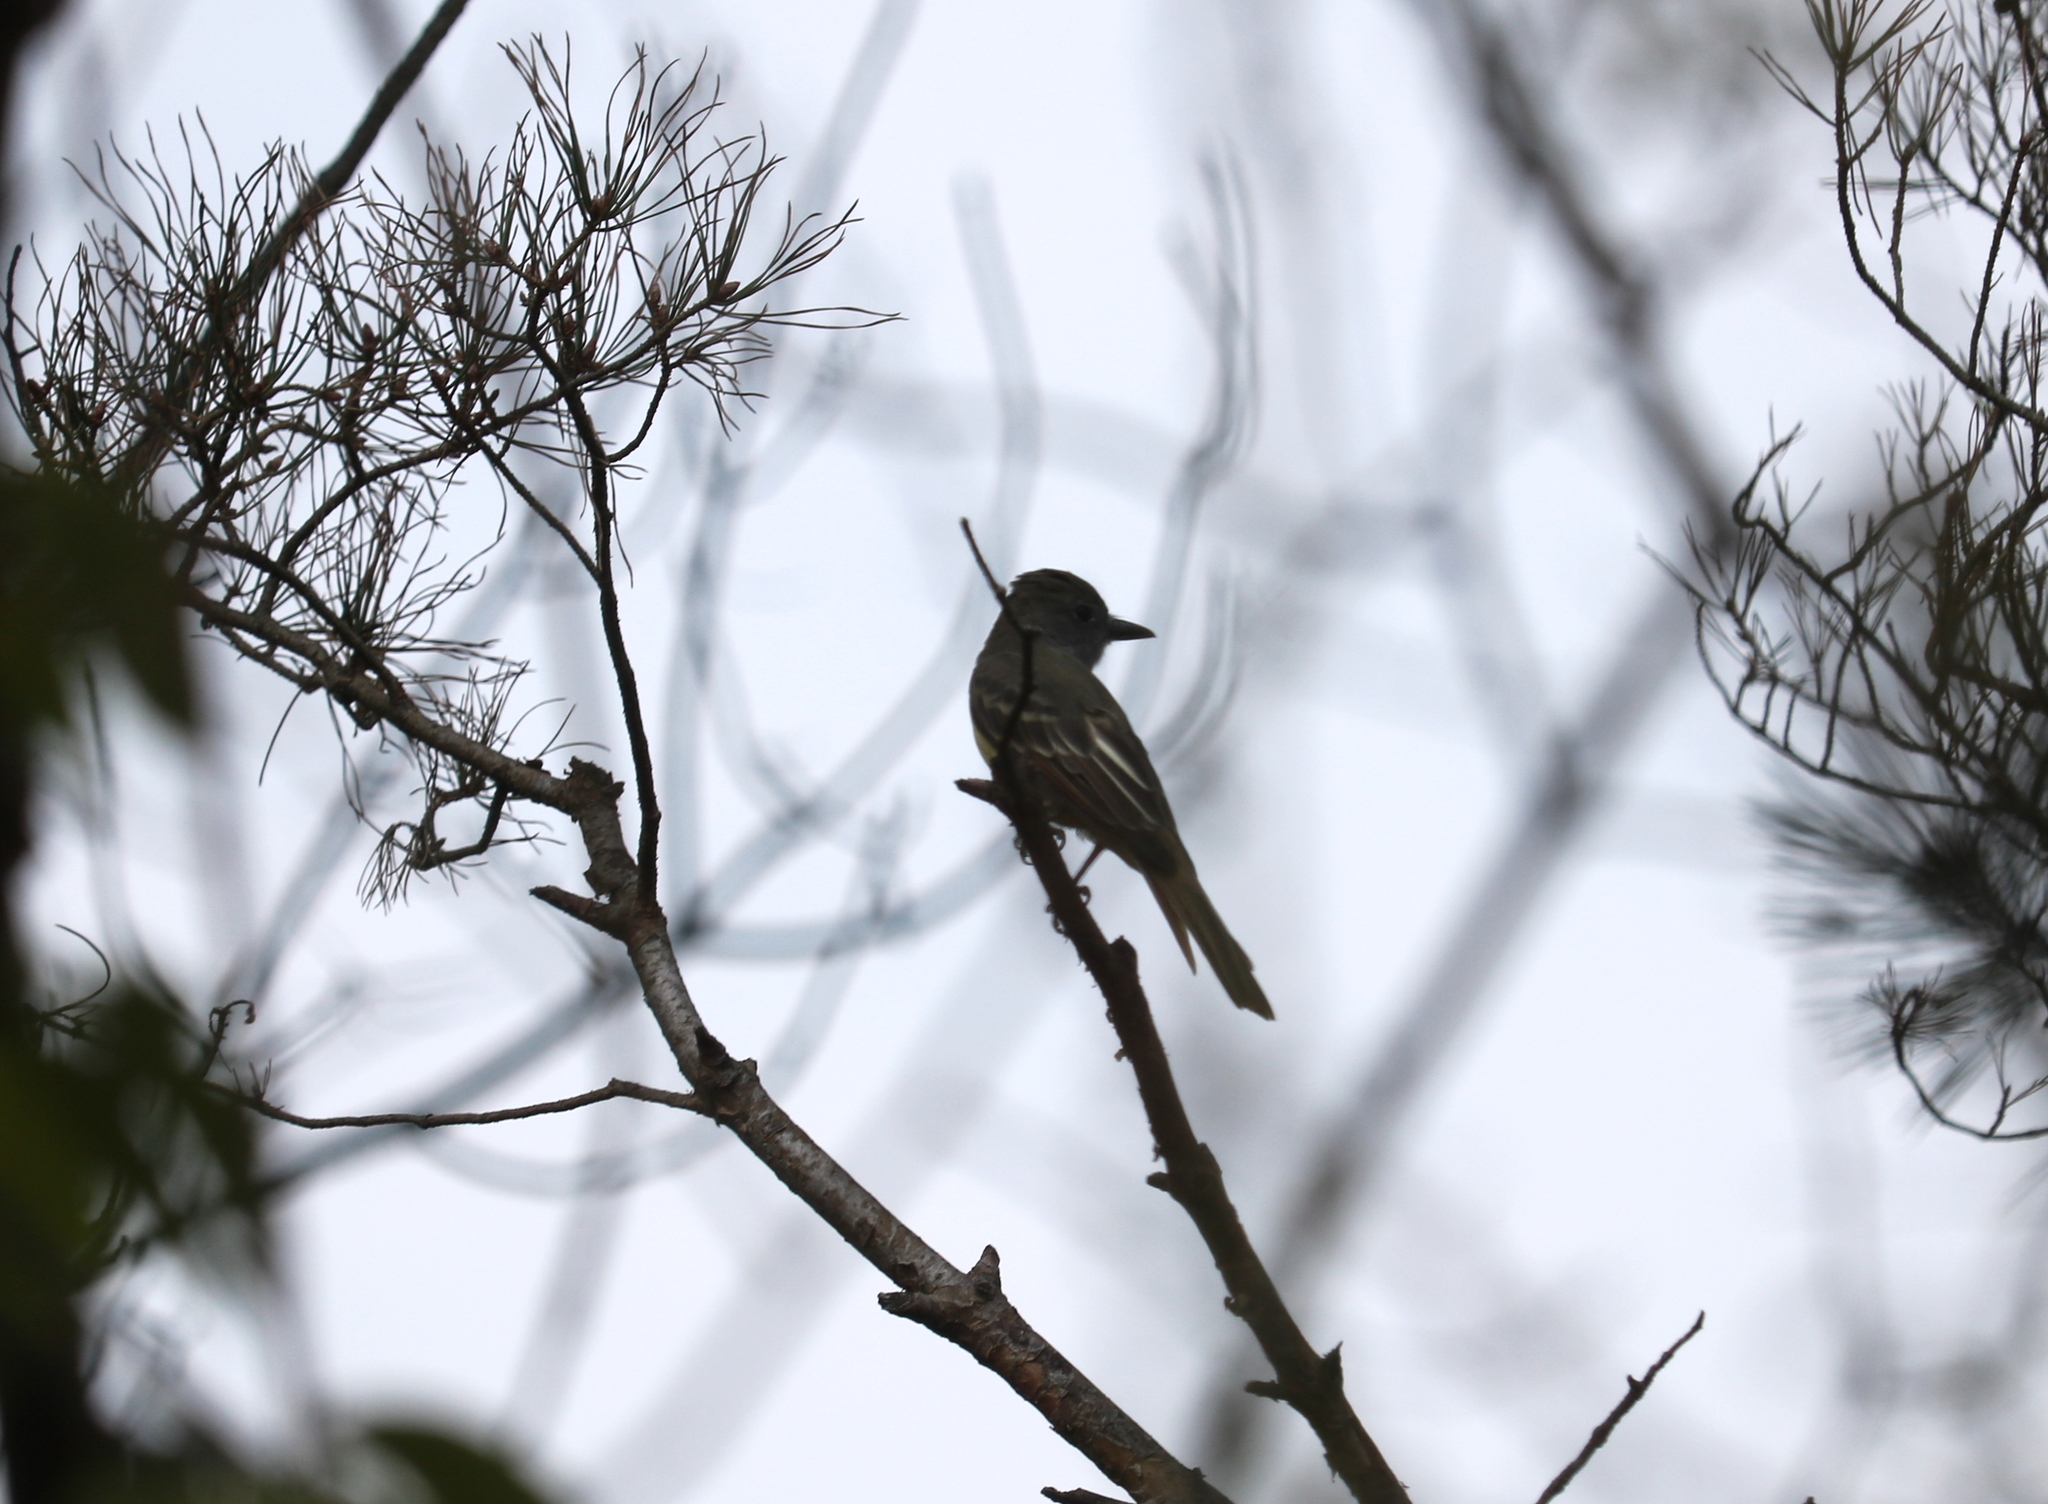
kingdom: Animalia
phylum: Chordata
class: Aves
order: Passeriformes
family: Tyrannidae
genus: Myiarchus
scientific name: Myiarchus crinitus
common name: Great crested flycatcher
